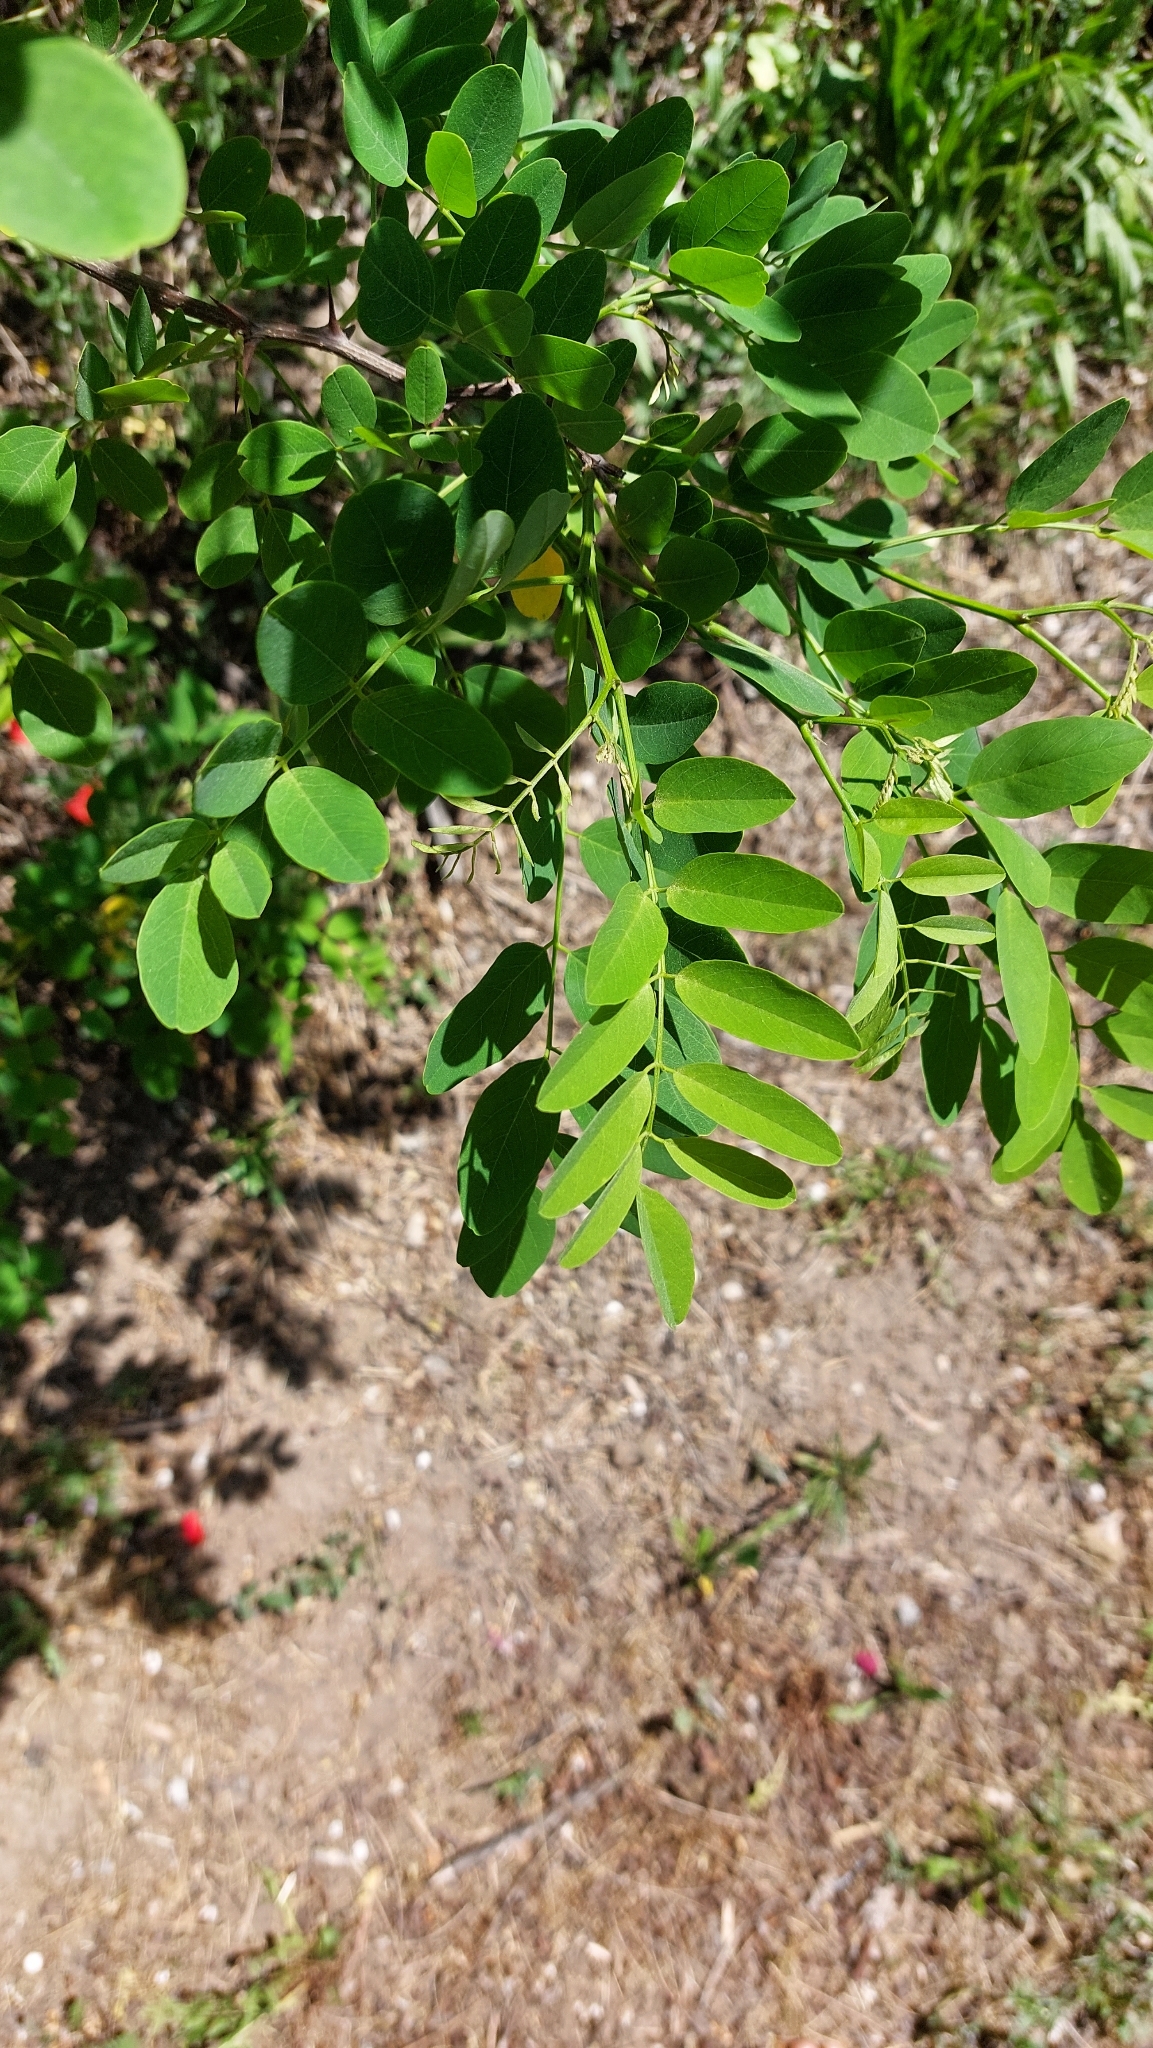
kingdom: Plantae
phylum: Tracheophyta
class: Magnoliopsida
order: Fabales
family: Fabaceae
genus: Robinia
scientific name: Robinia pseudoacacia
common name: Black locust
